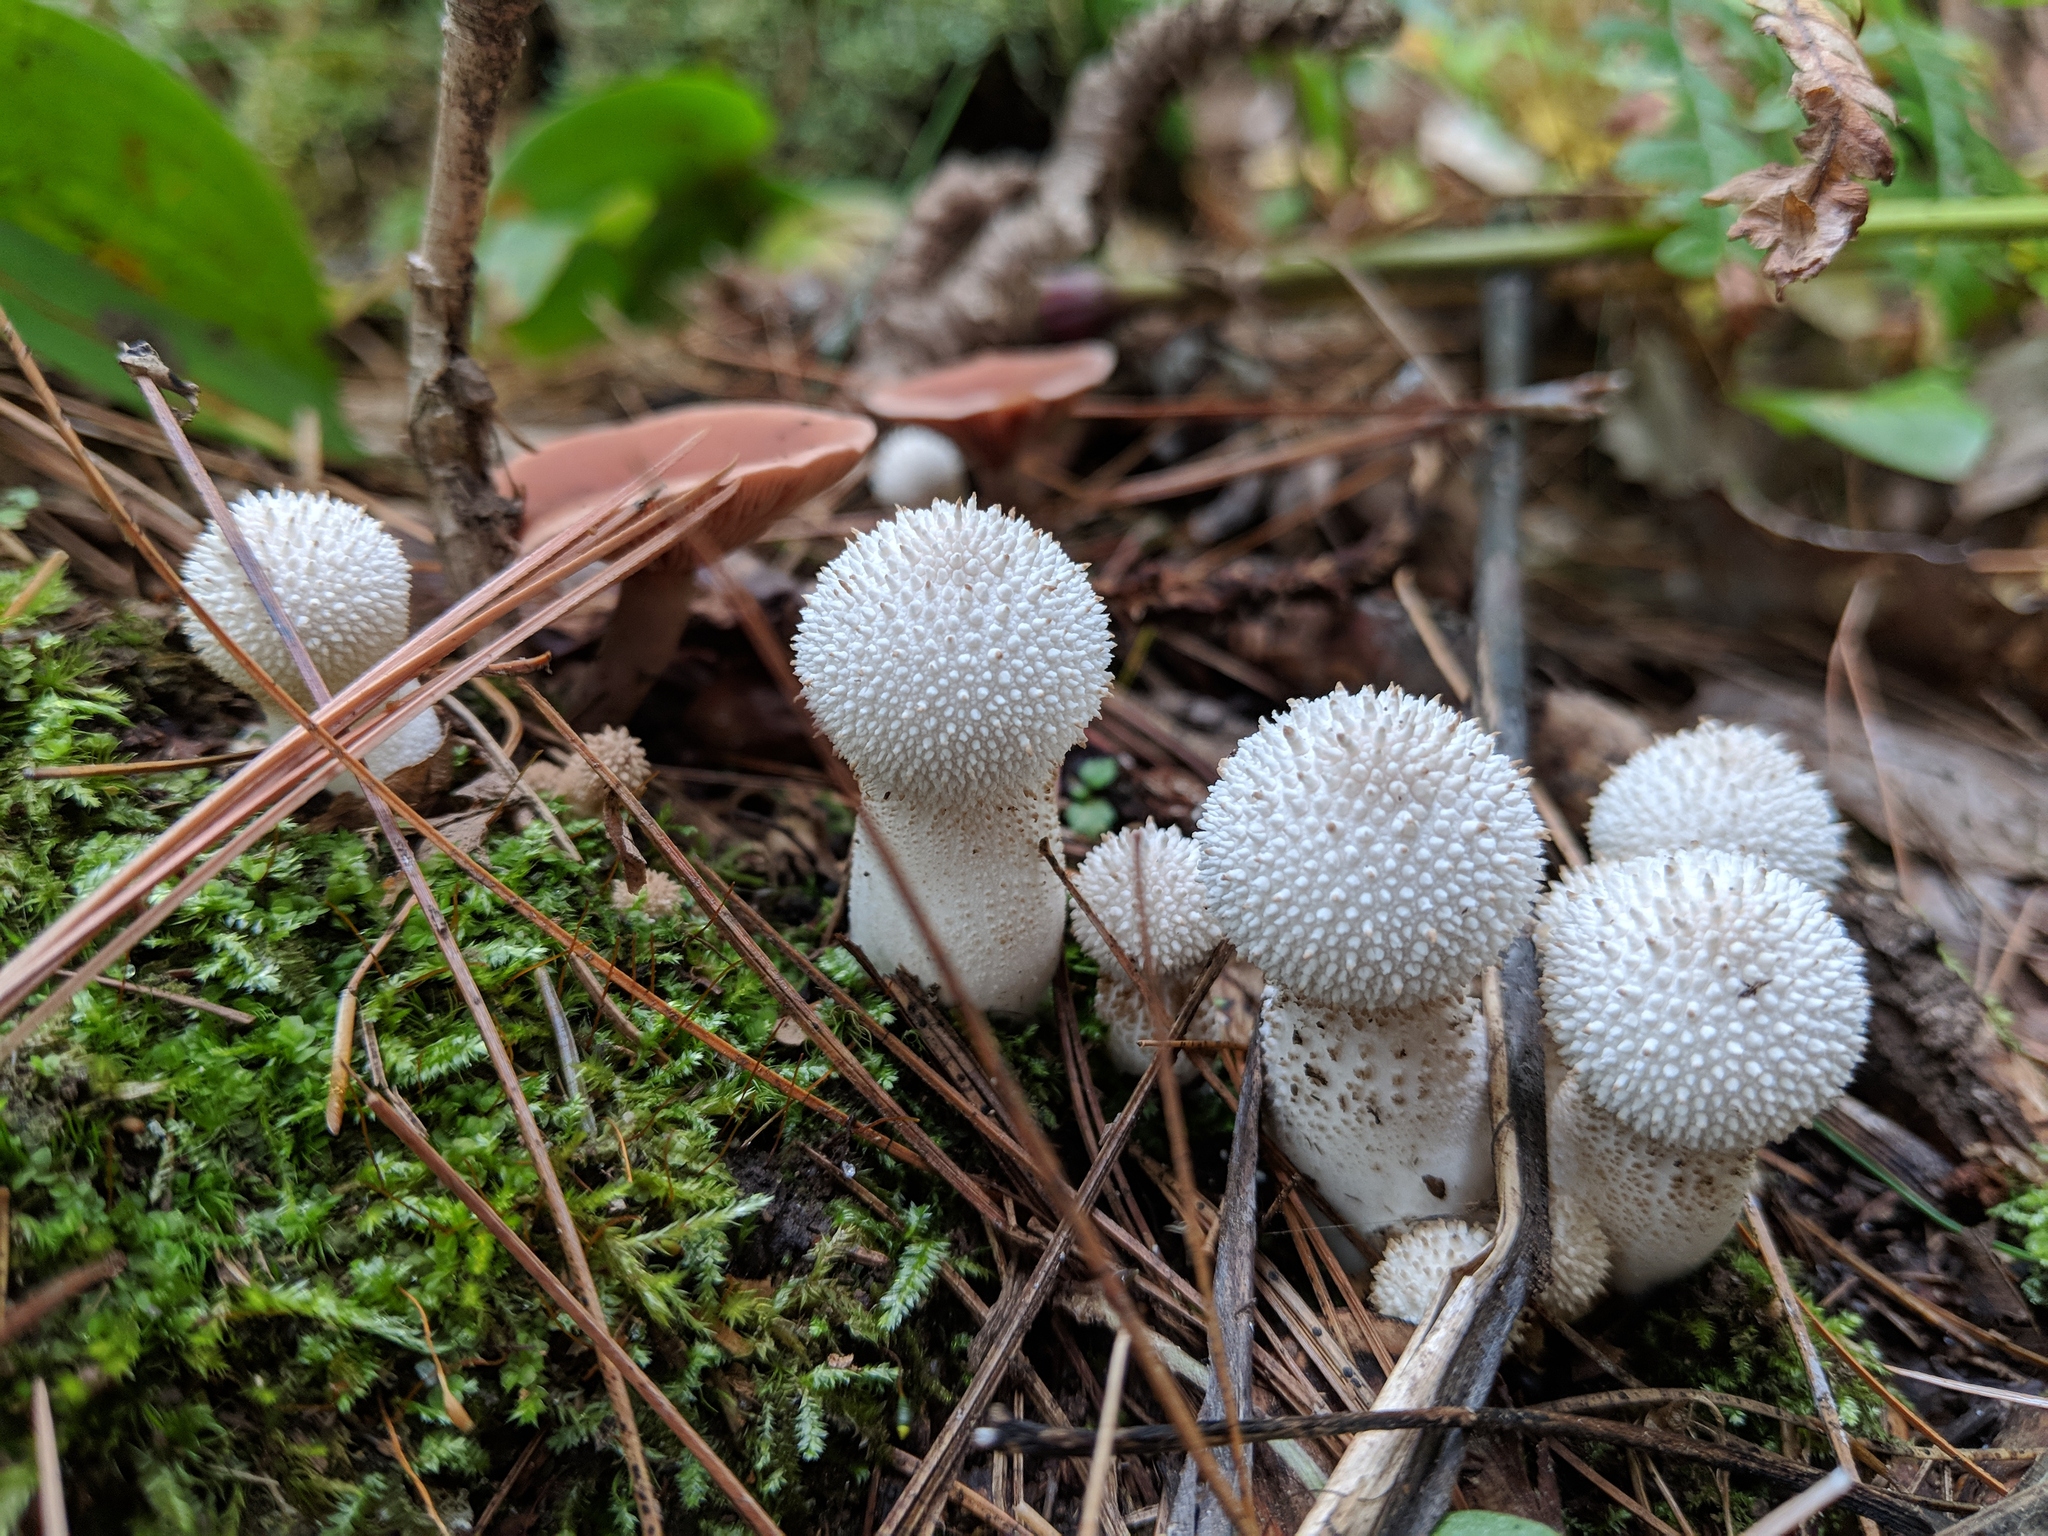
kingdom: Fungi
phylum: Basidiomycota
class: Agaricomycetes
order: Agaricales
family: Lycoperdaceae
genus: Lycoperdon
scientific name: Lycoperdon perlatum
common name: Common puffball
